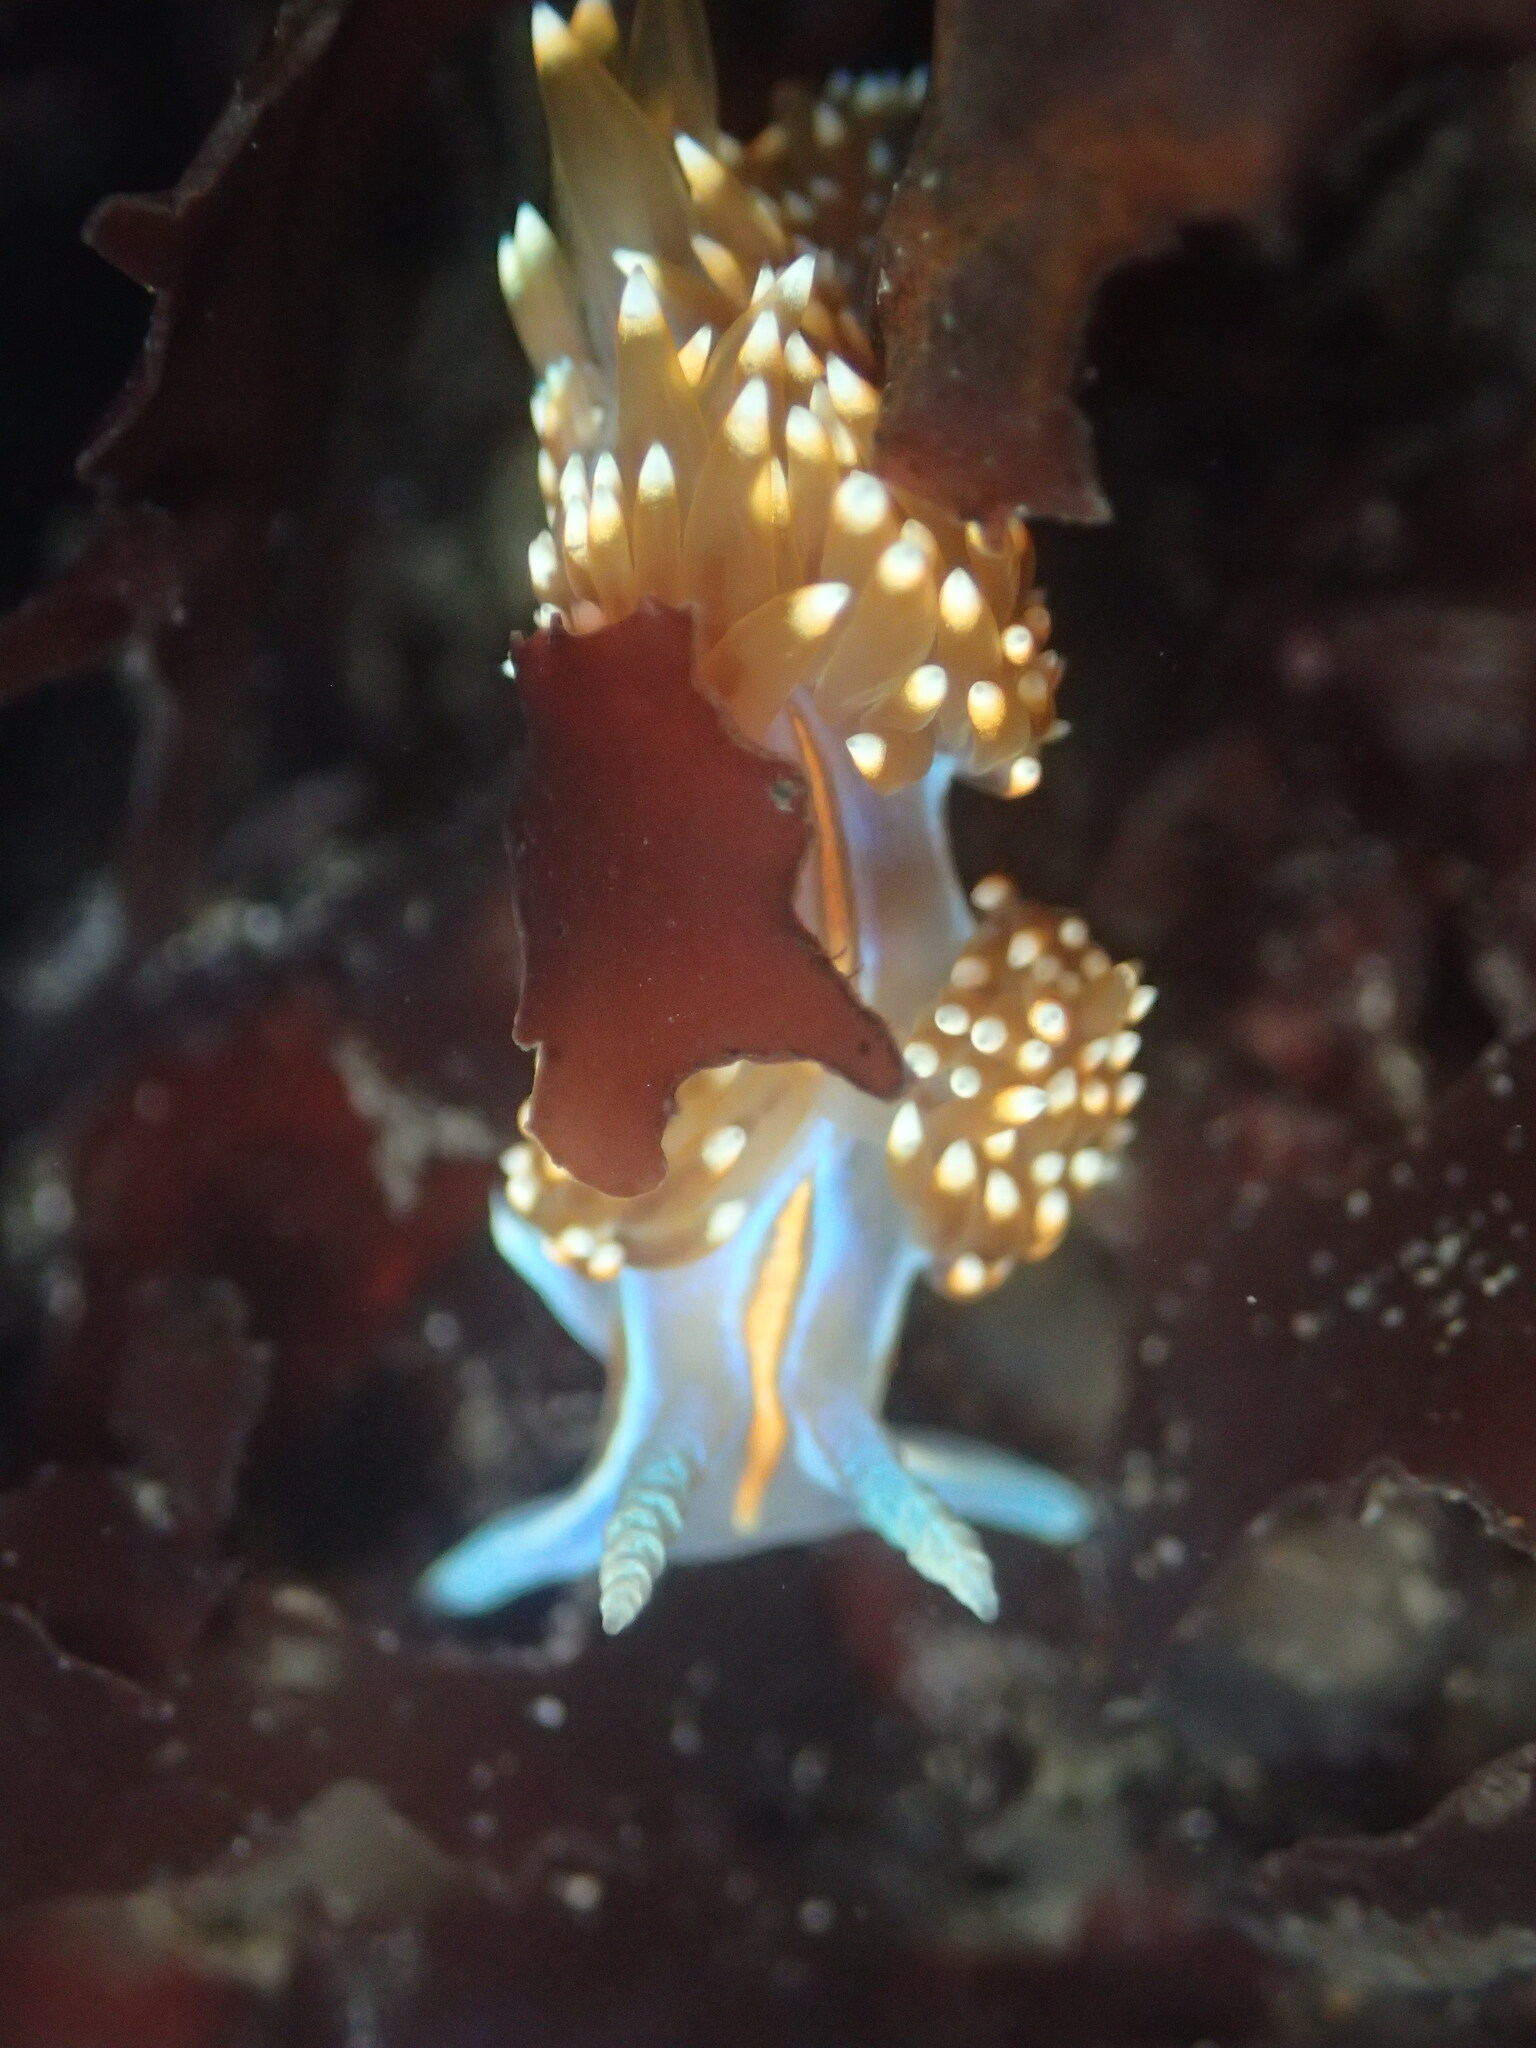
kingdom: Animalia
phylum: Mollusca
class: Gastropoda
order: Nudibranchia
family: Myrrhinidae
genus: Hermissenda
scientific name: Hermissenda opalescens
